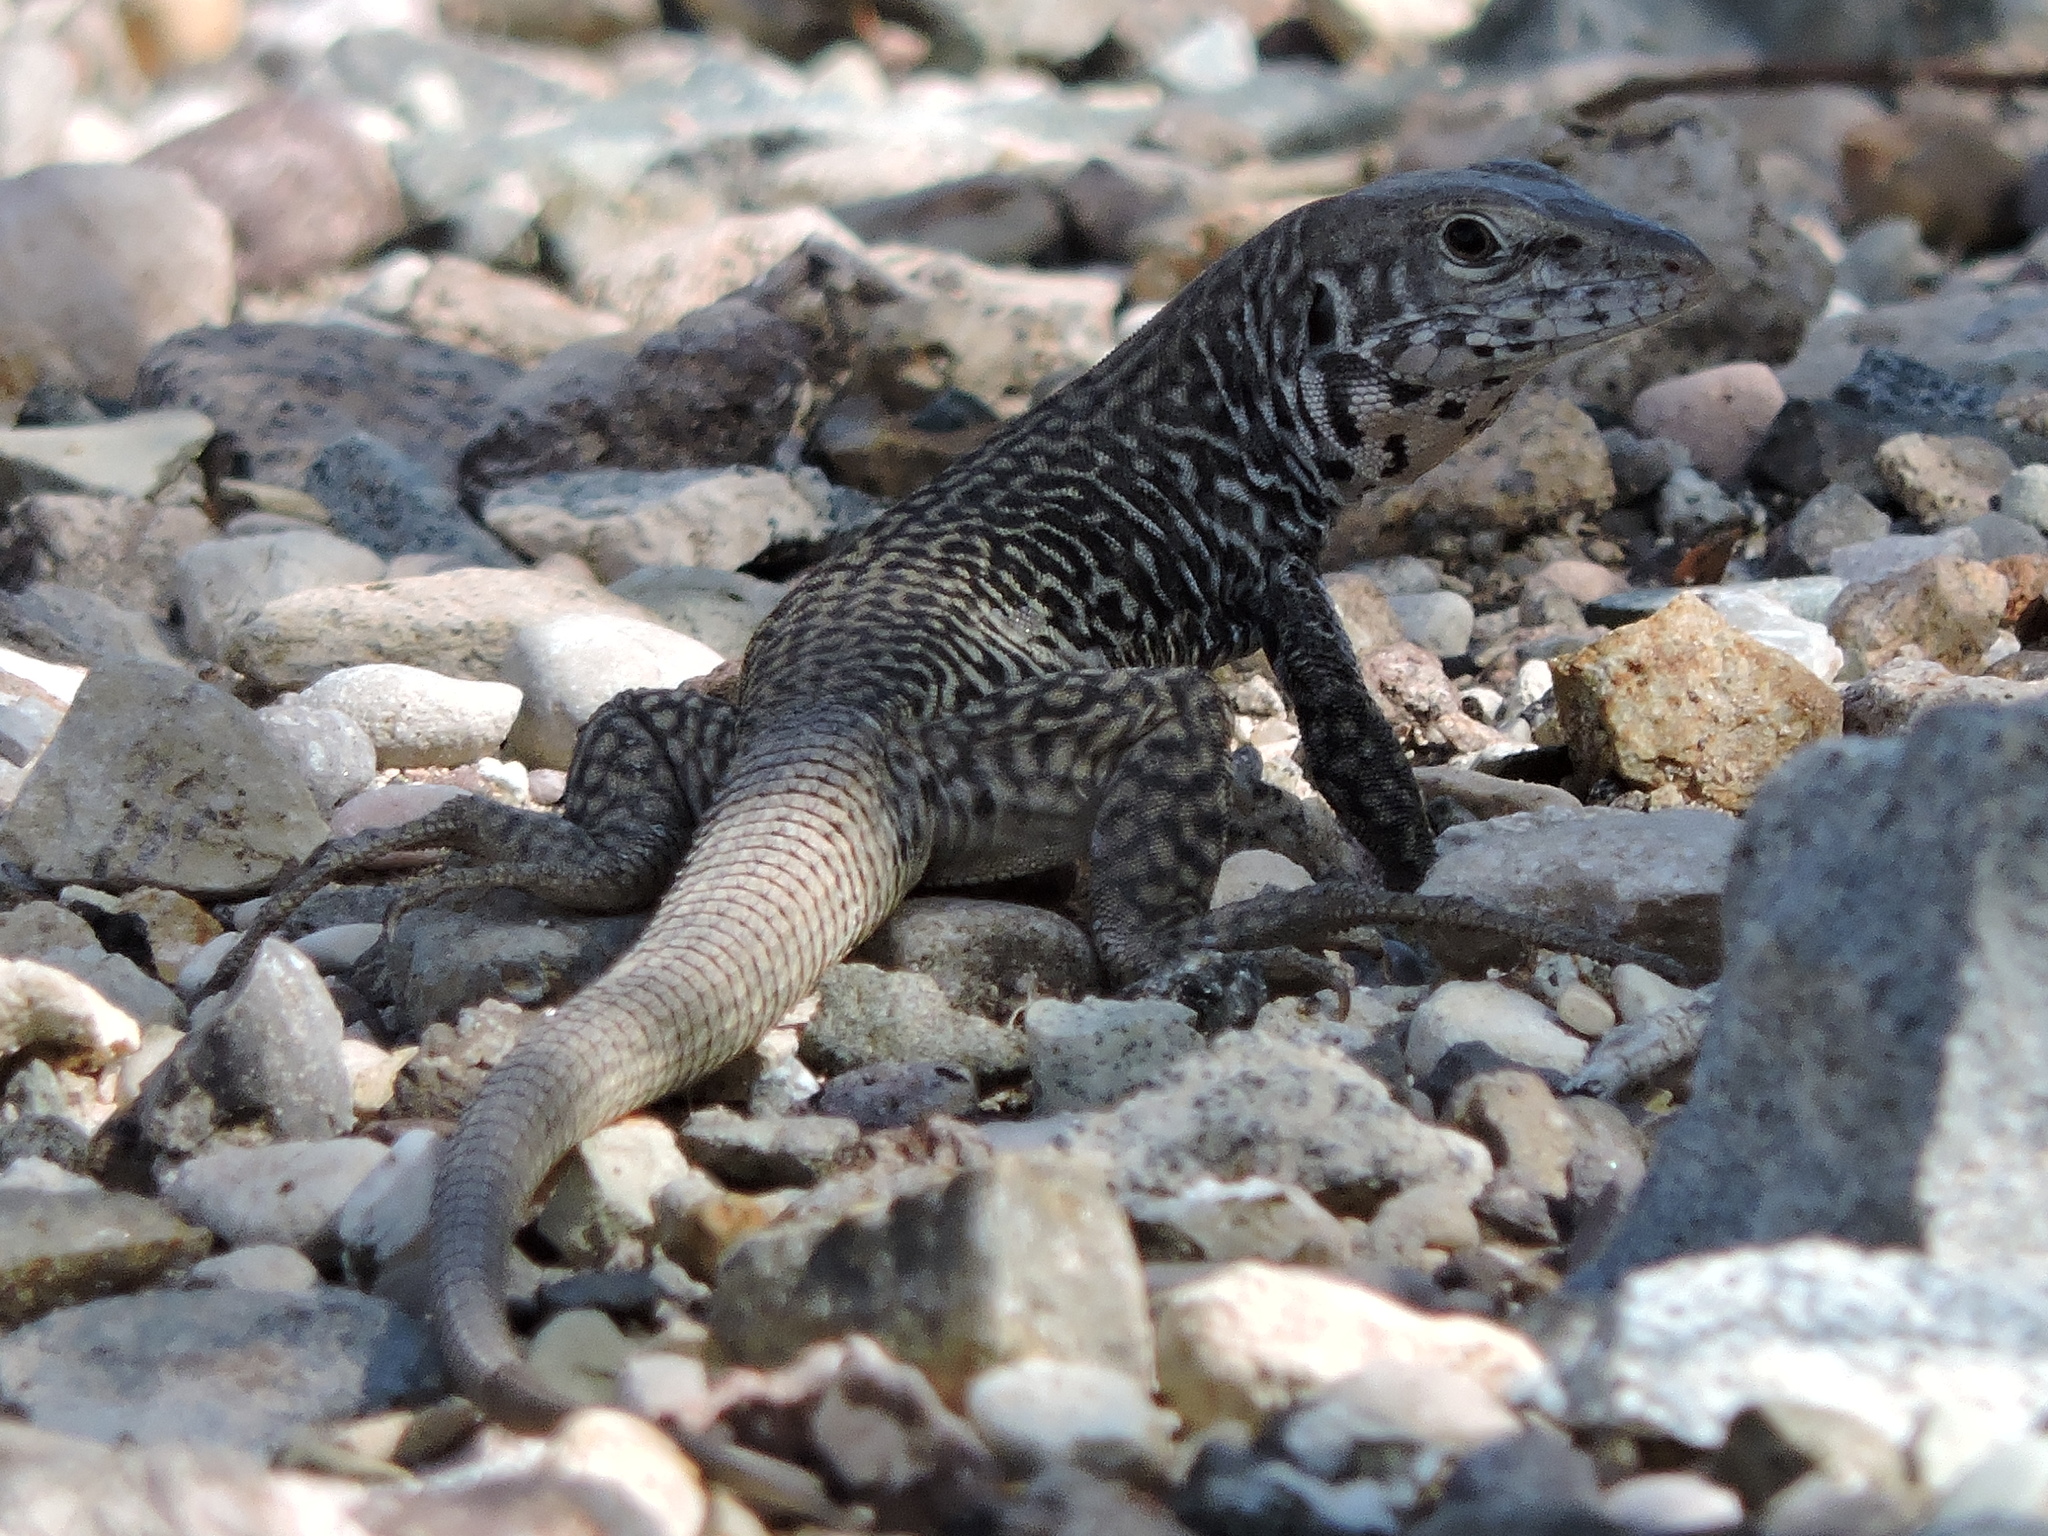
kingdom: Animalia
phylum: Chordata
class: Squamata
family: Teiidae
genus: Aspidoscelis
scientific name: Aspidoscelis marmoratus
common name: Eastern marbled whiptail [reticuloriens]
